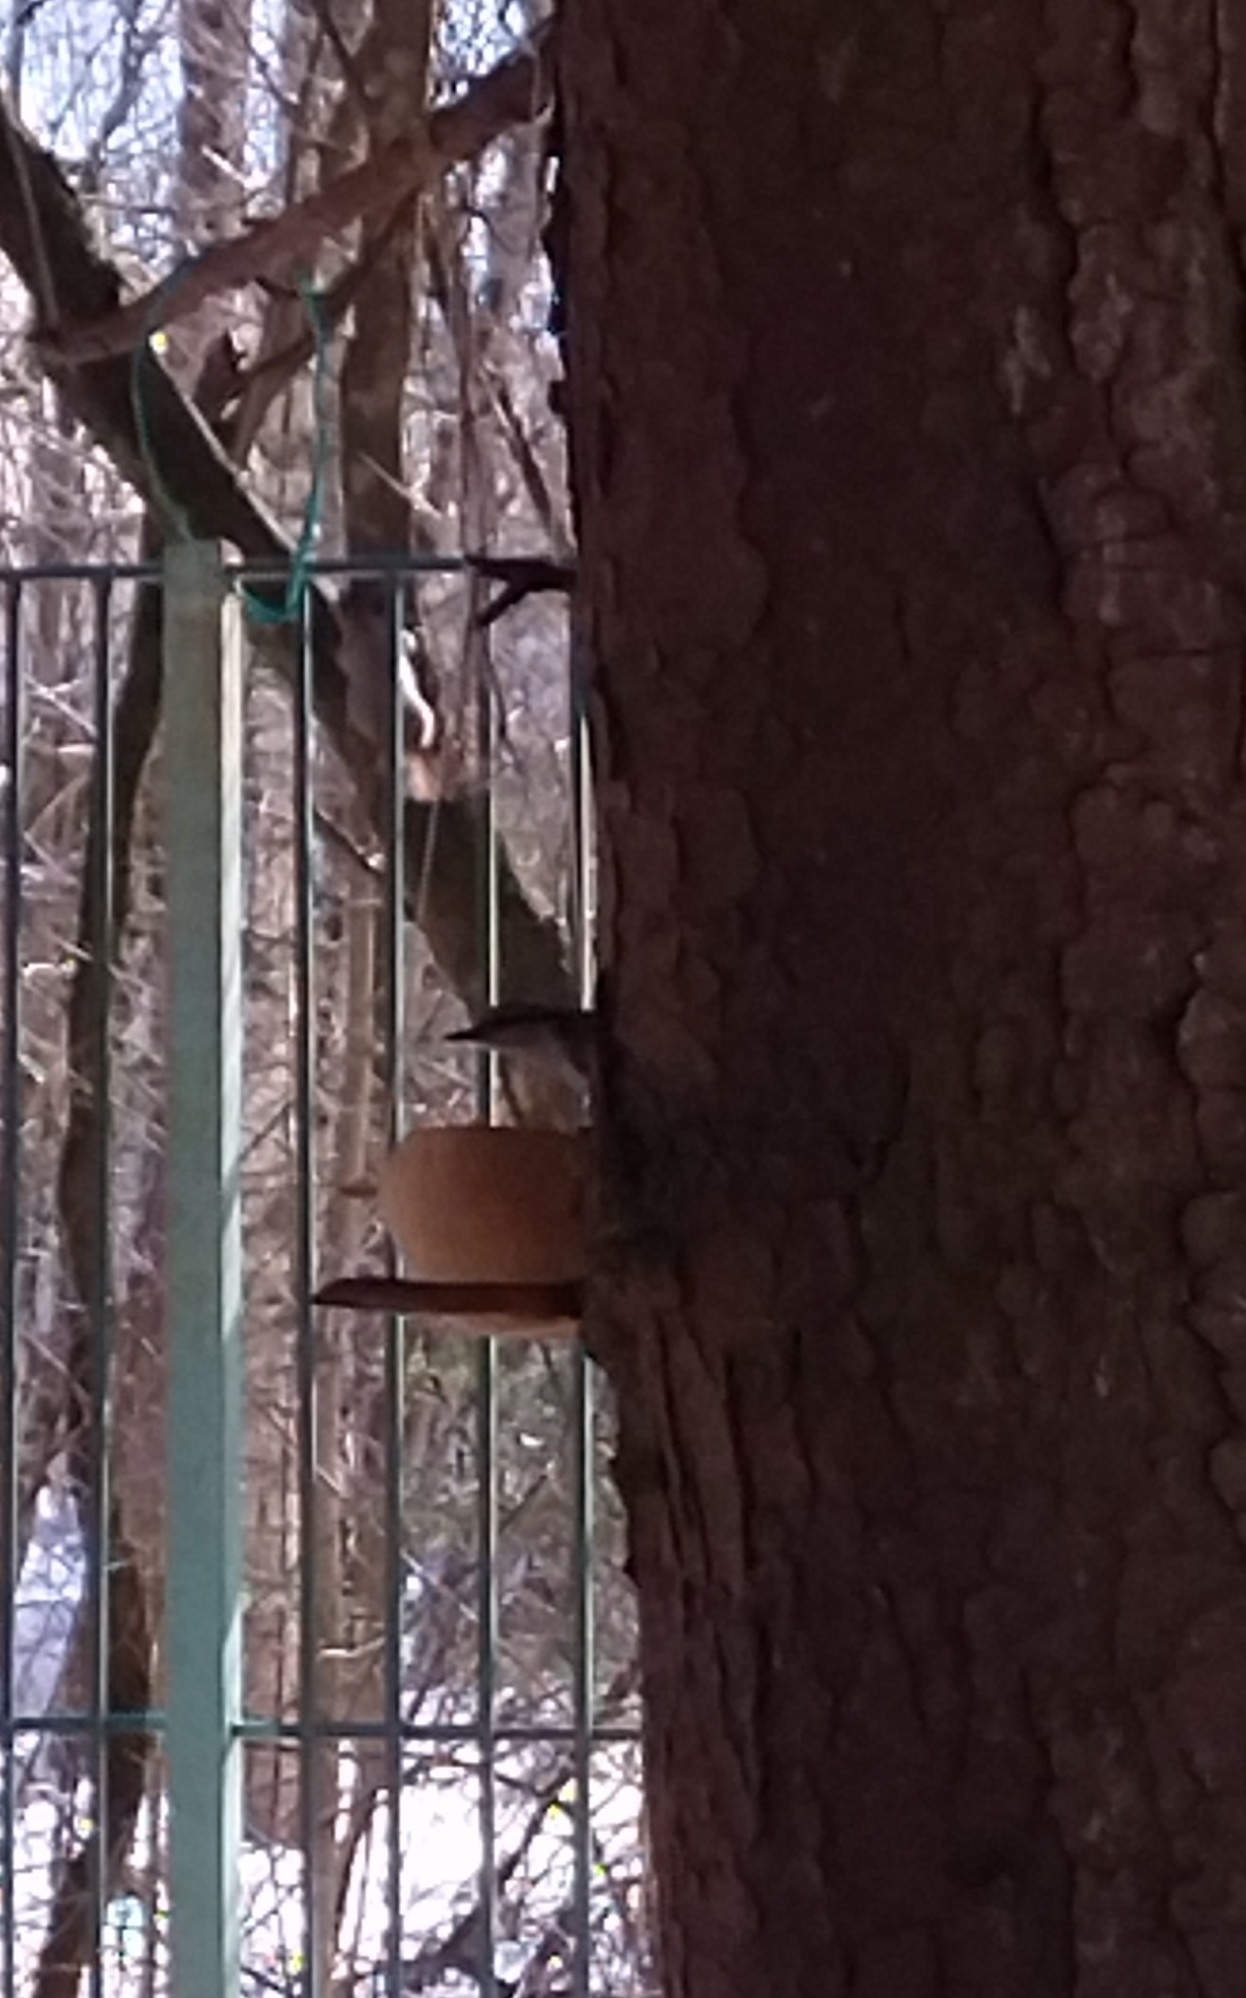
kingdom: Animalia
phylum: Chordata
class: Aves
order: Passeriformes
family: Sittidae
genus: Sitta
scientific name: Sitta europaea
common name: Eurasian nuthatch
